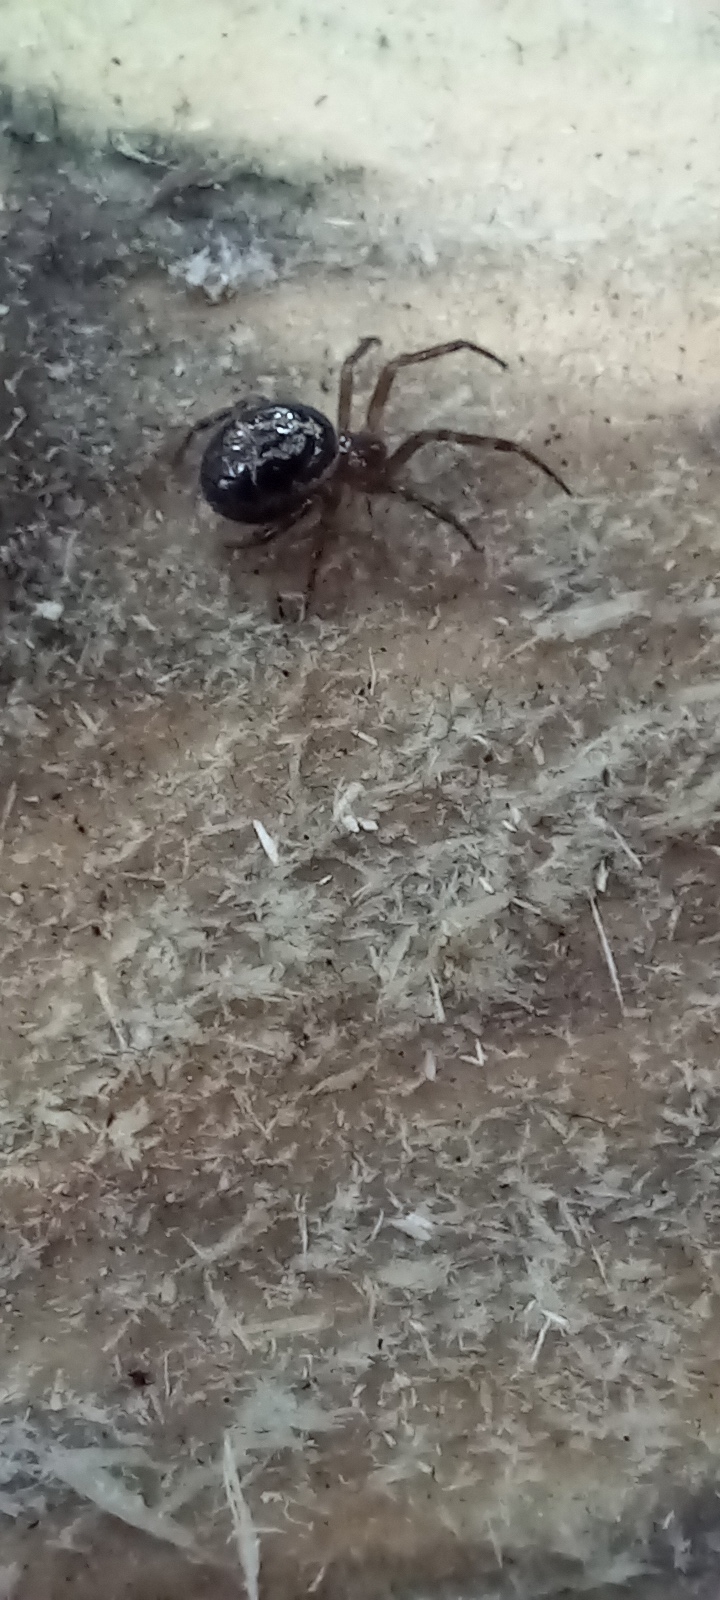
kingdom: Animalia
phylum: Arthropoda
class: Arachnida
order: Araneae
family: Theridiidae
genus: Steatoda
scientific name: Steatoda nobilis
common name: Cobweb weaver
